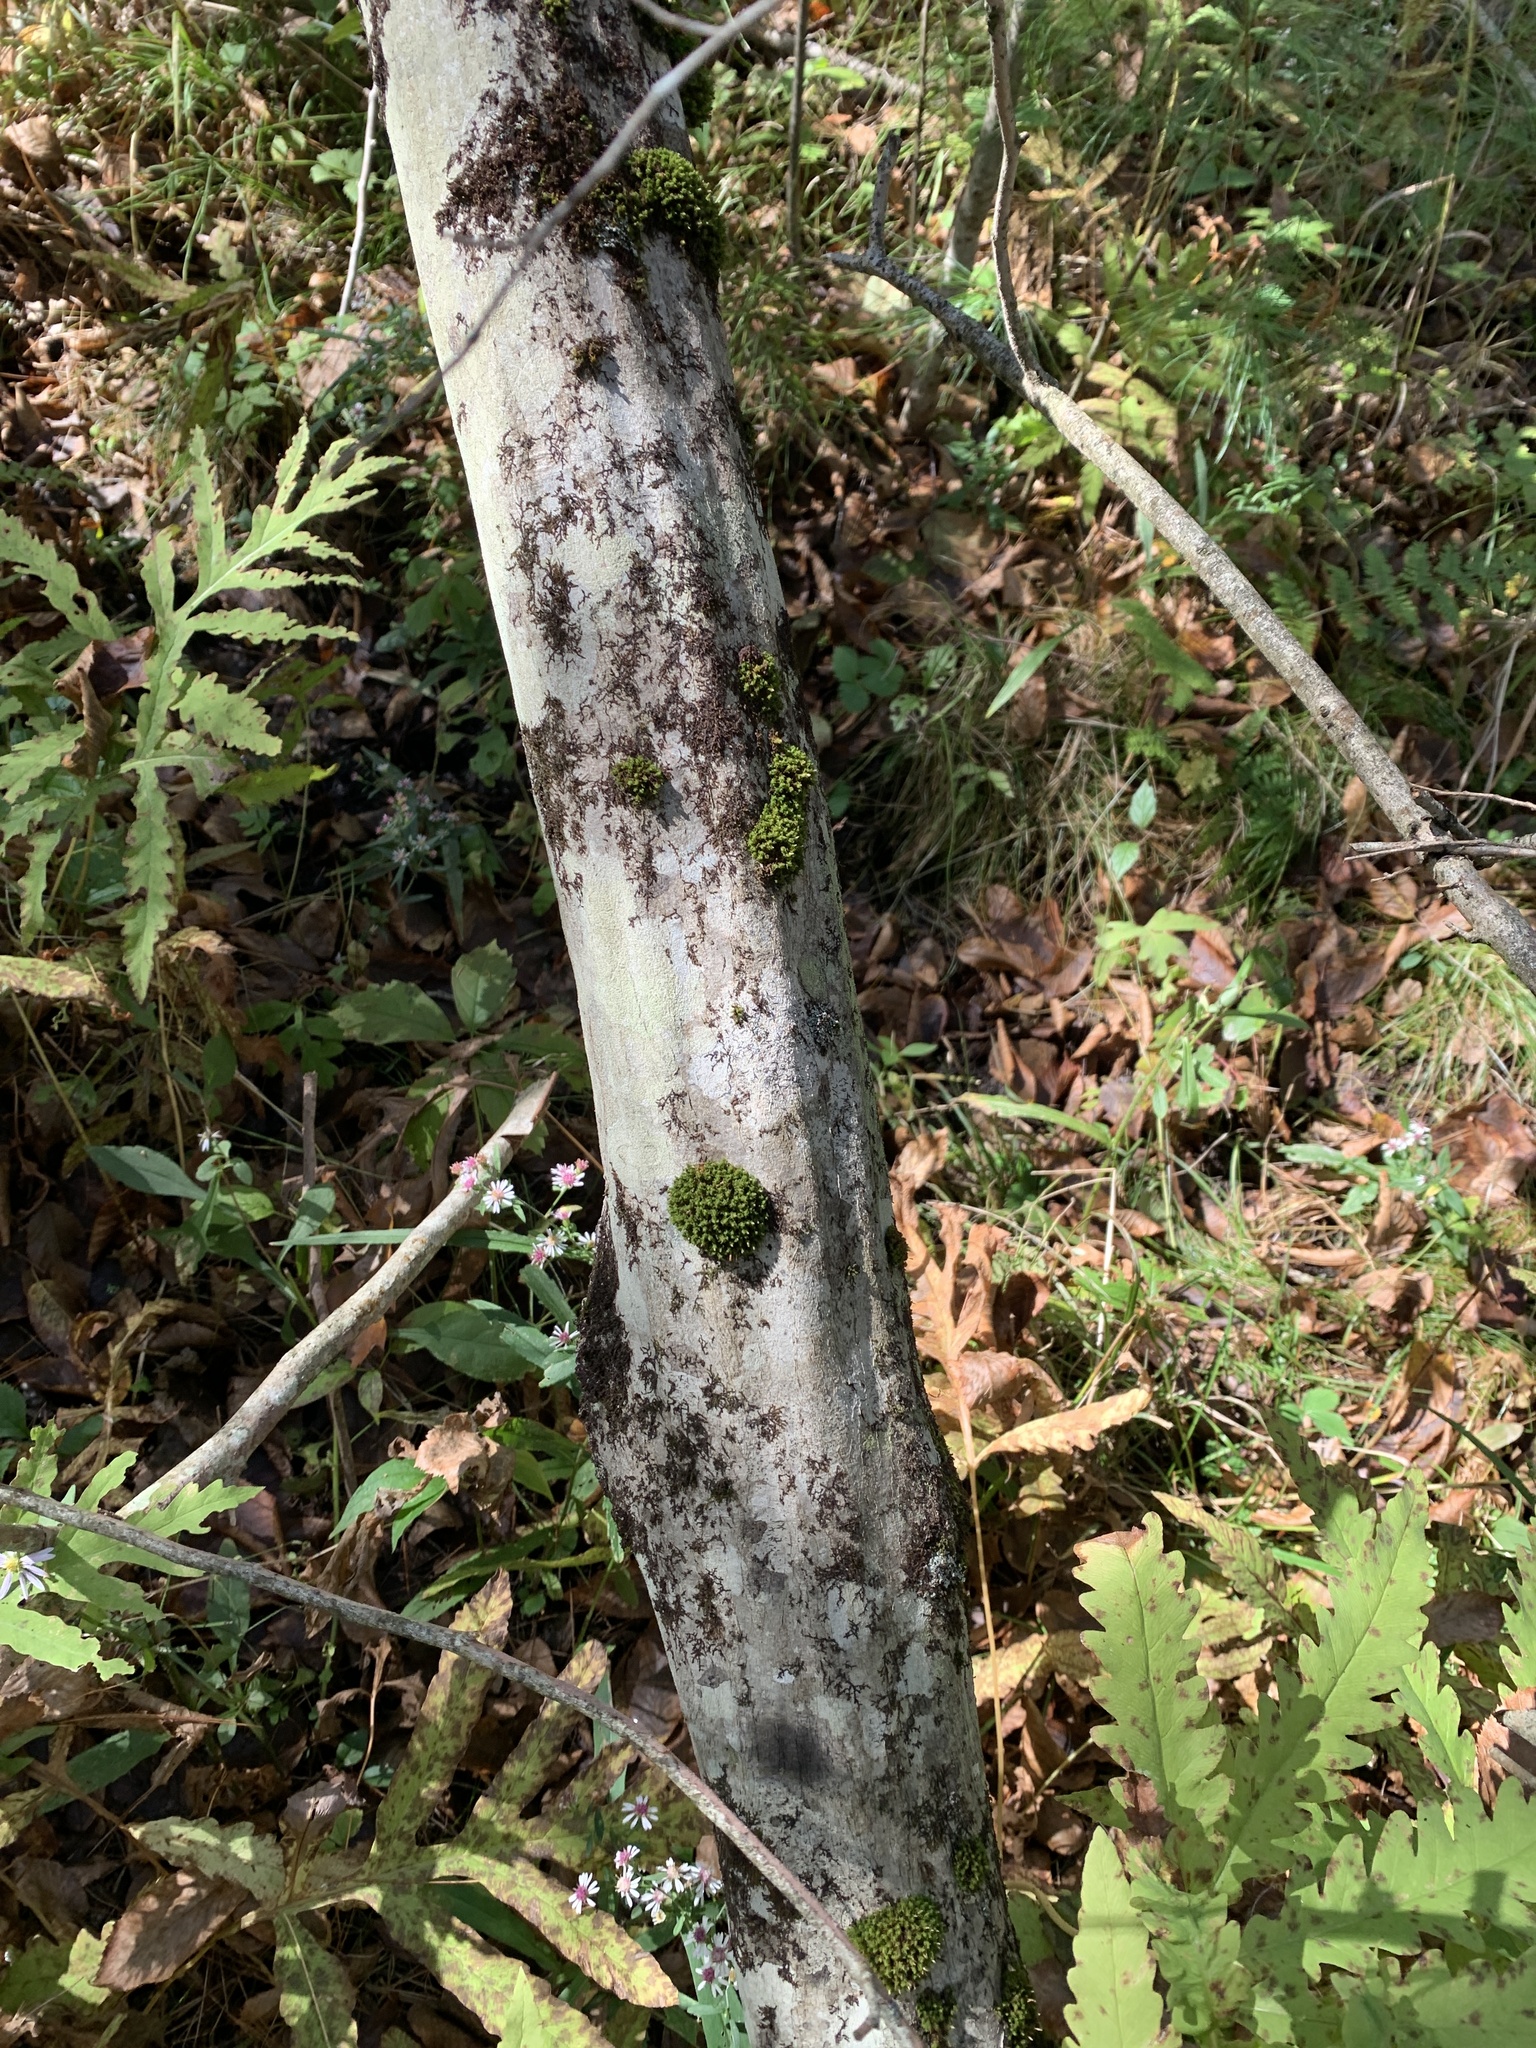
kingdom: Plantae
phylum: Tracheophyta
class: Magnoliopsida
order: Fagales
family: Betulaceae
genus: Carpinus
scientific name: Carpinus caroliniana
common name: American hornbeam
